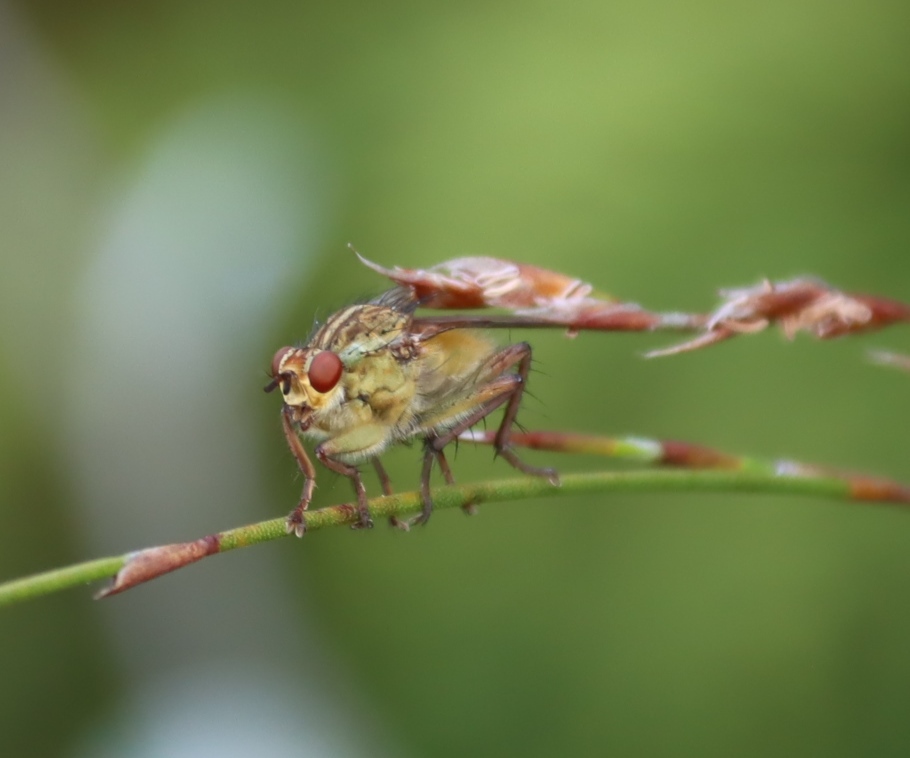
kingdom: Animalia
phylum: Arthropoda
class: Insecta
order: Diptera
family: Scathophagidae
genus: Scathophaga
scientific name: Scathophaga soror
